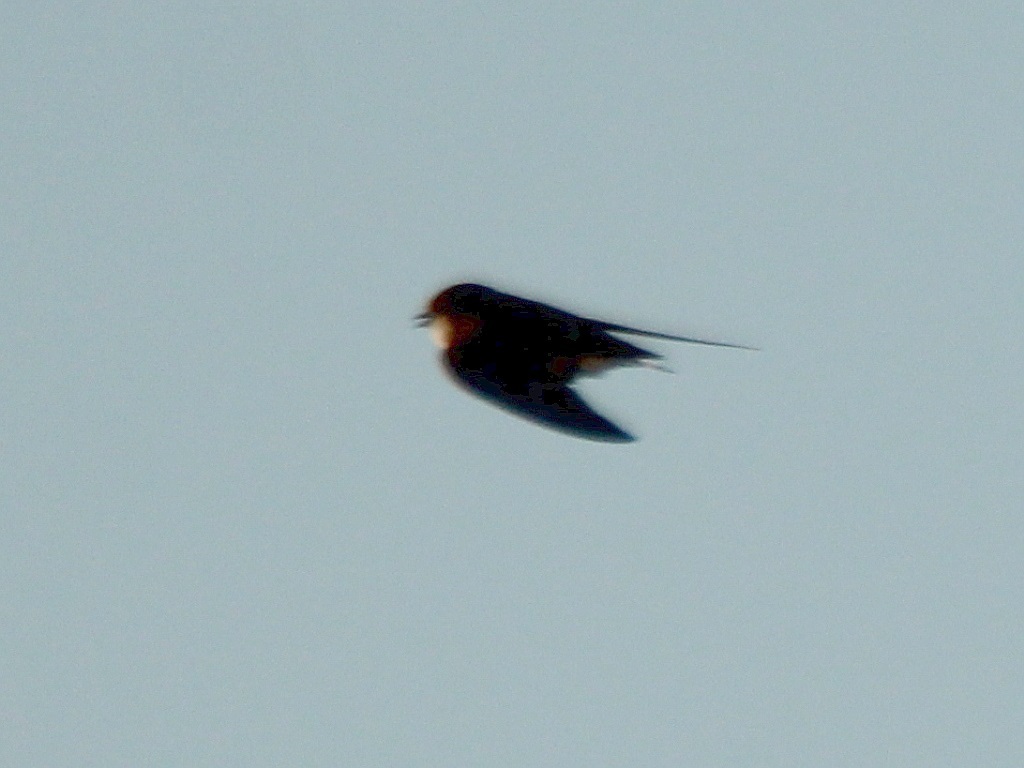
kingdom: Animalia
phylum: Chordata
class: Aves
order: Passeriformes
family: Hirundinidae
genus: Riparia
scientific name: Riparia riparia
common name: Sand martin
